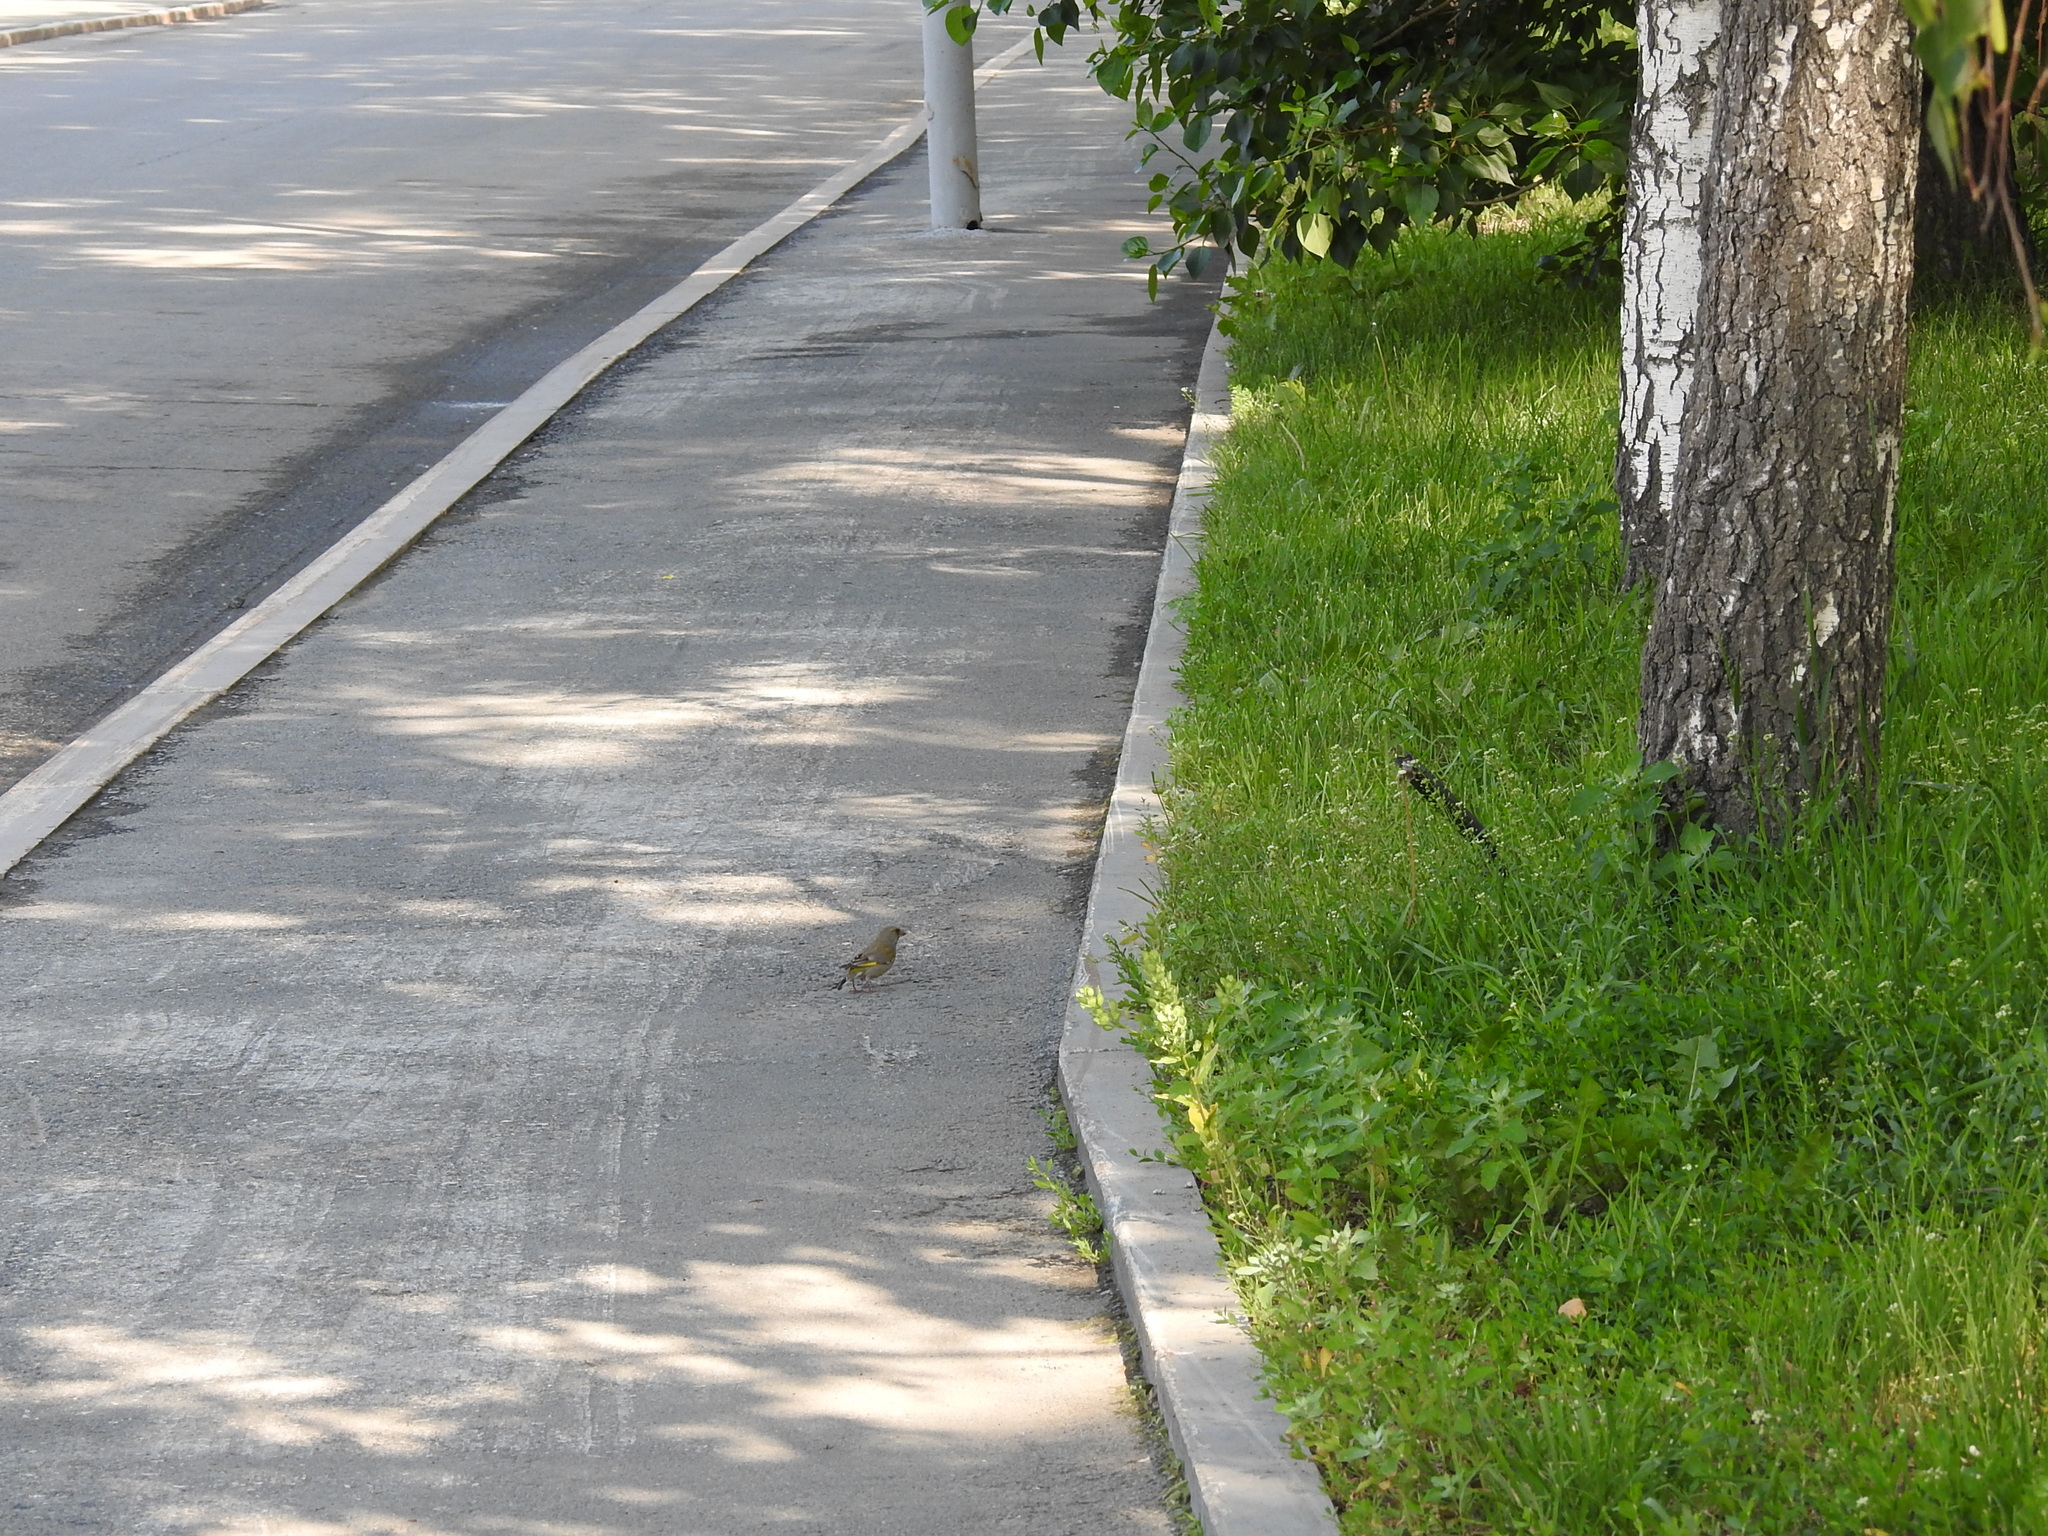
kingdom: Plantae
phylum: Tracheophyta
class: Liliopsida
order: Poales
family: Poaceae
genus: Chloris
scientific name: Chloris chloris
